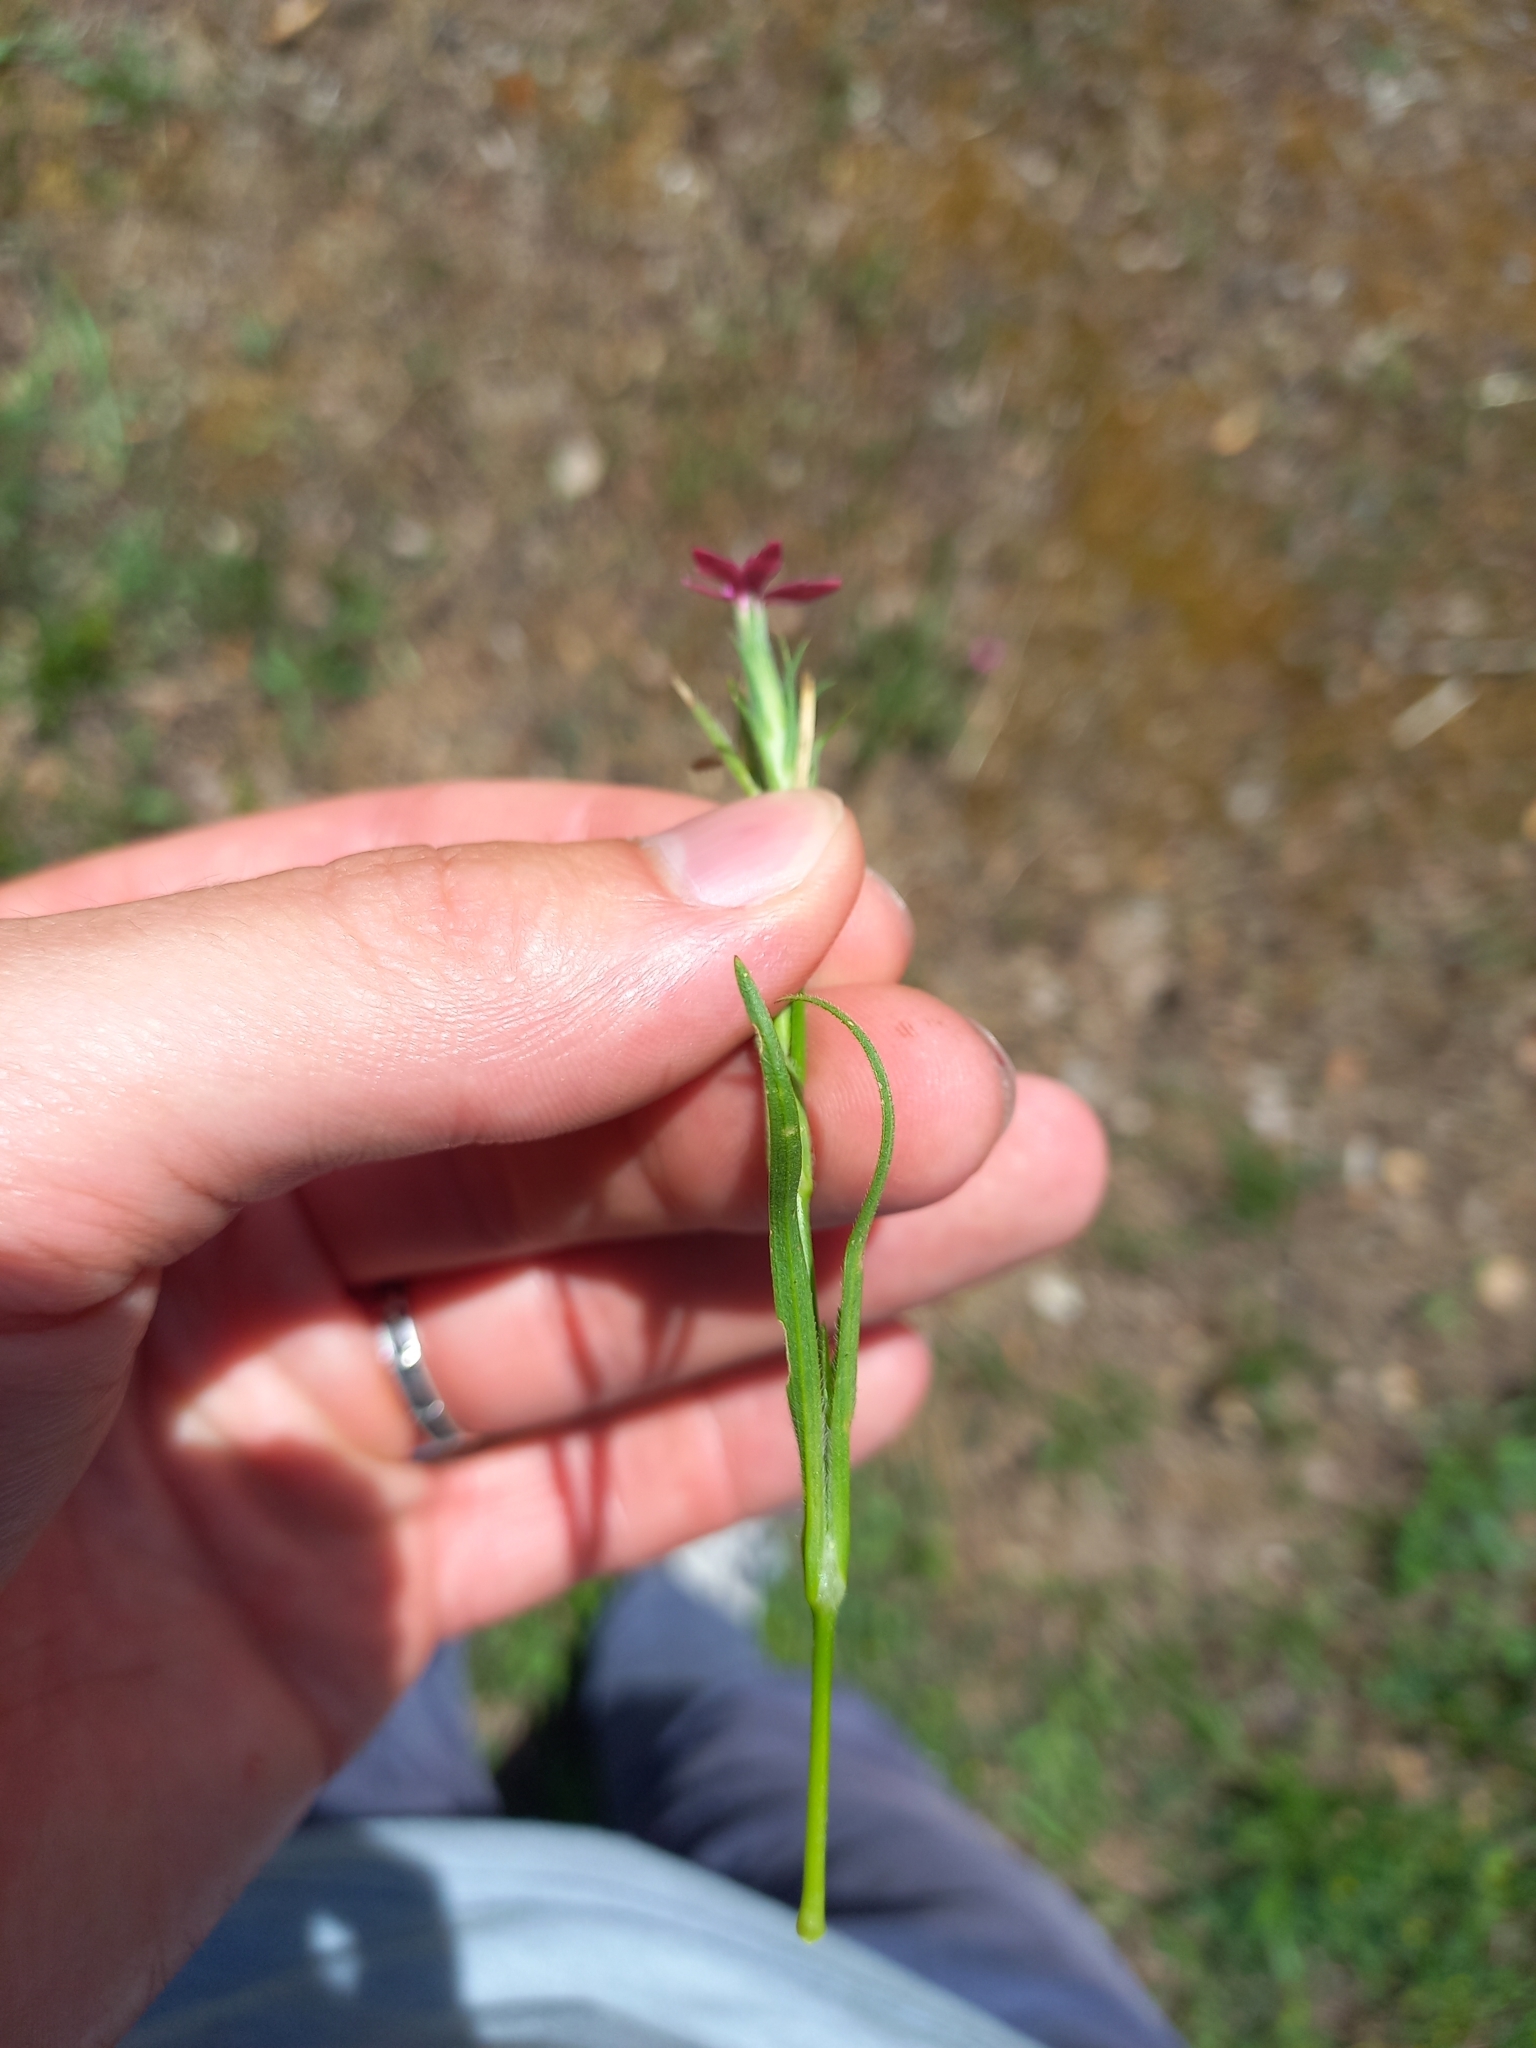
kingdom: Plantae
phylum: Tracheophyta
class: Magnoliopsida
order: Caryophyllales
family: Caryophyllaceae
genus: Dianthus
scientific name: Dianthus armeria
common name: Deptford pink
